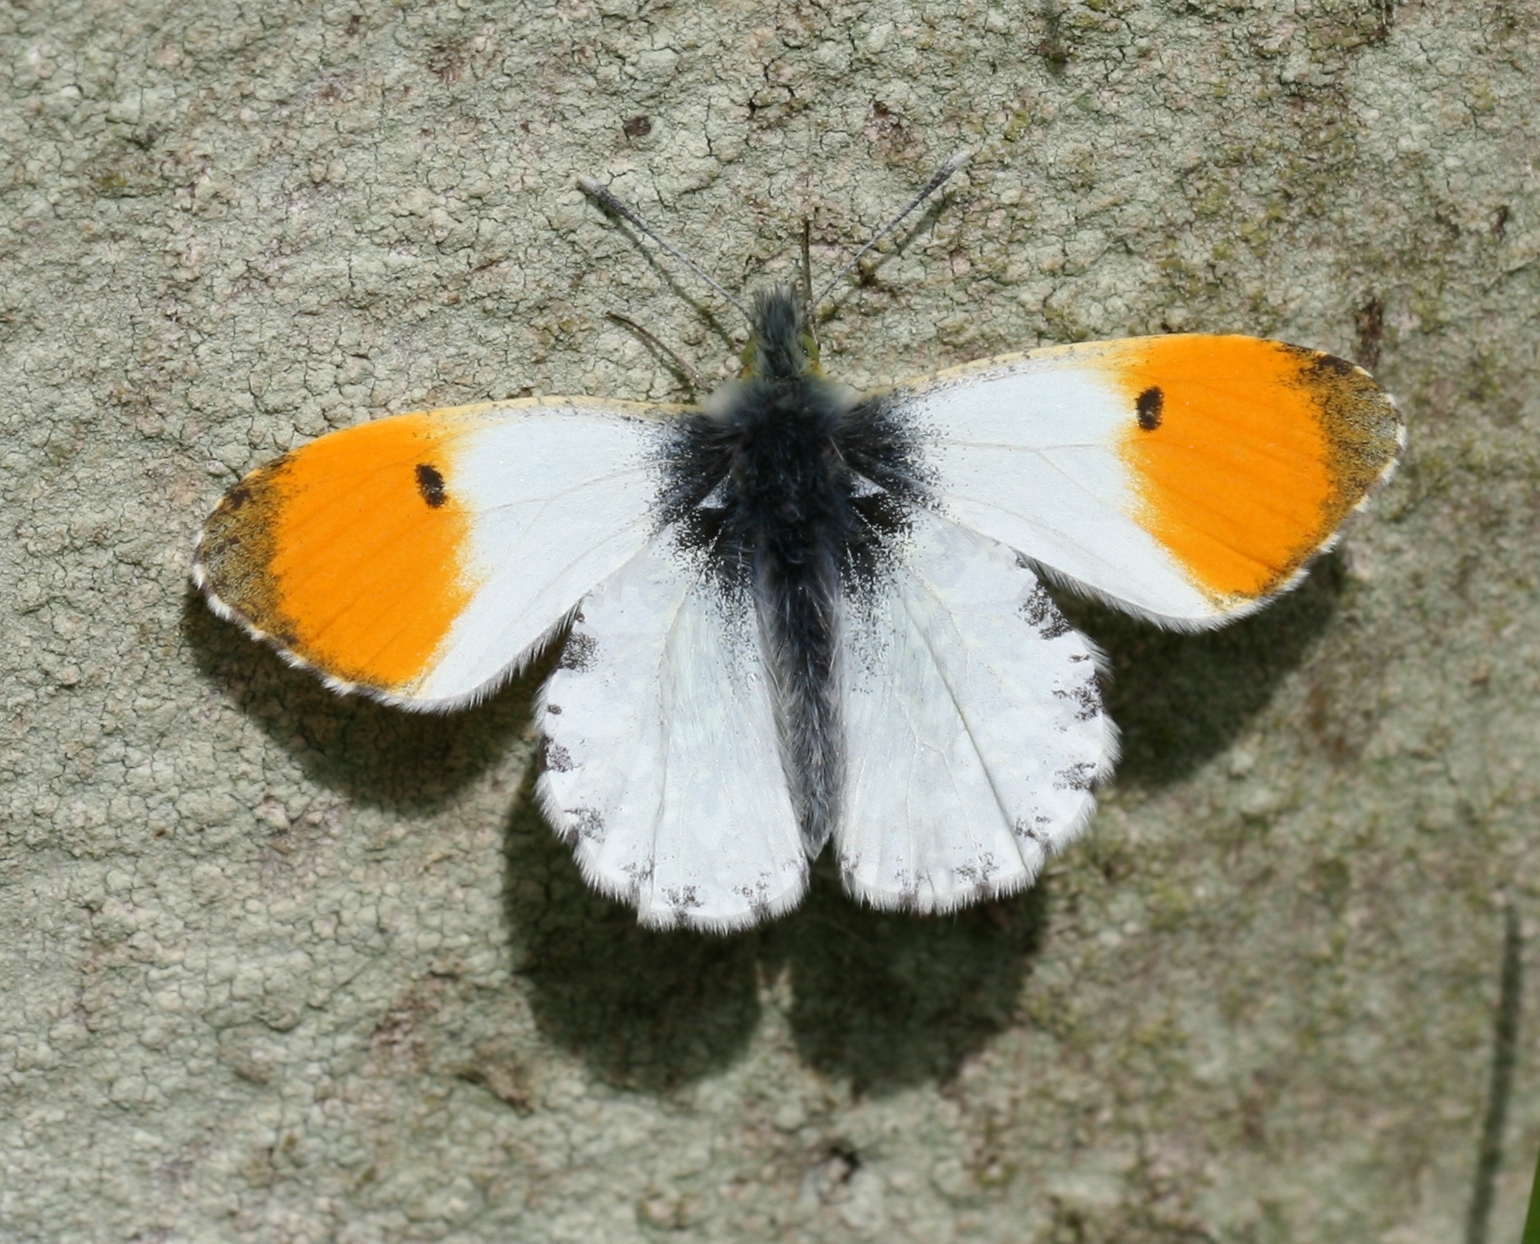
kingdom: Animalia
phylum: Arthropoda
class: Insecta
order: Lepidoptera
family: Pieridae
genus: Anthocharis
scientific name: Anthocharis cardamines
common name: Orange-tip
